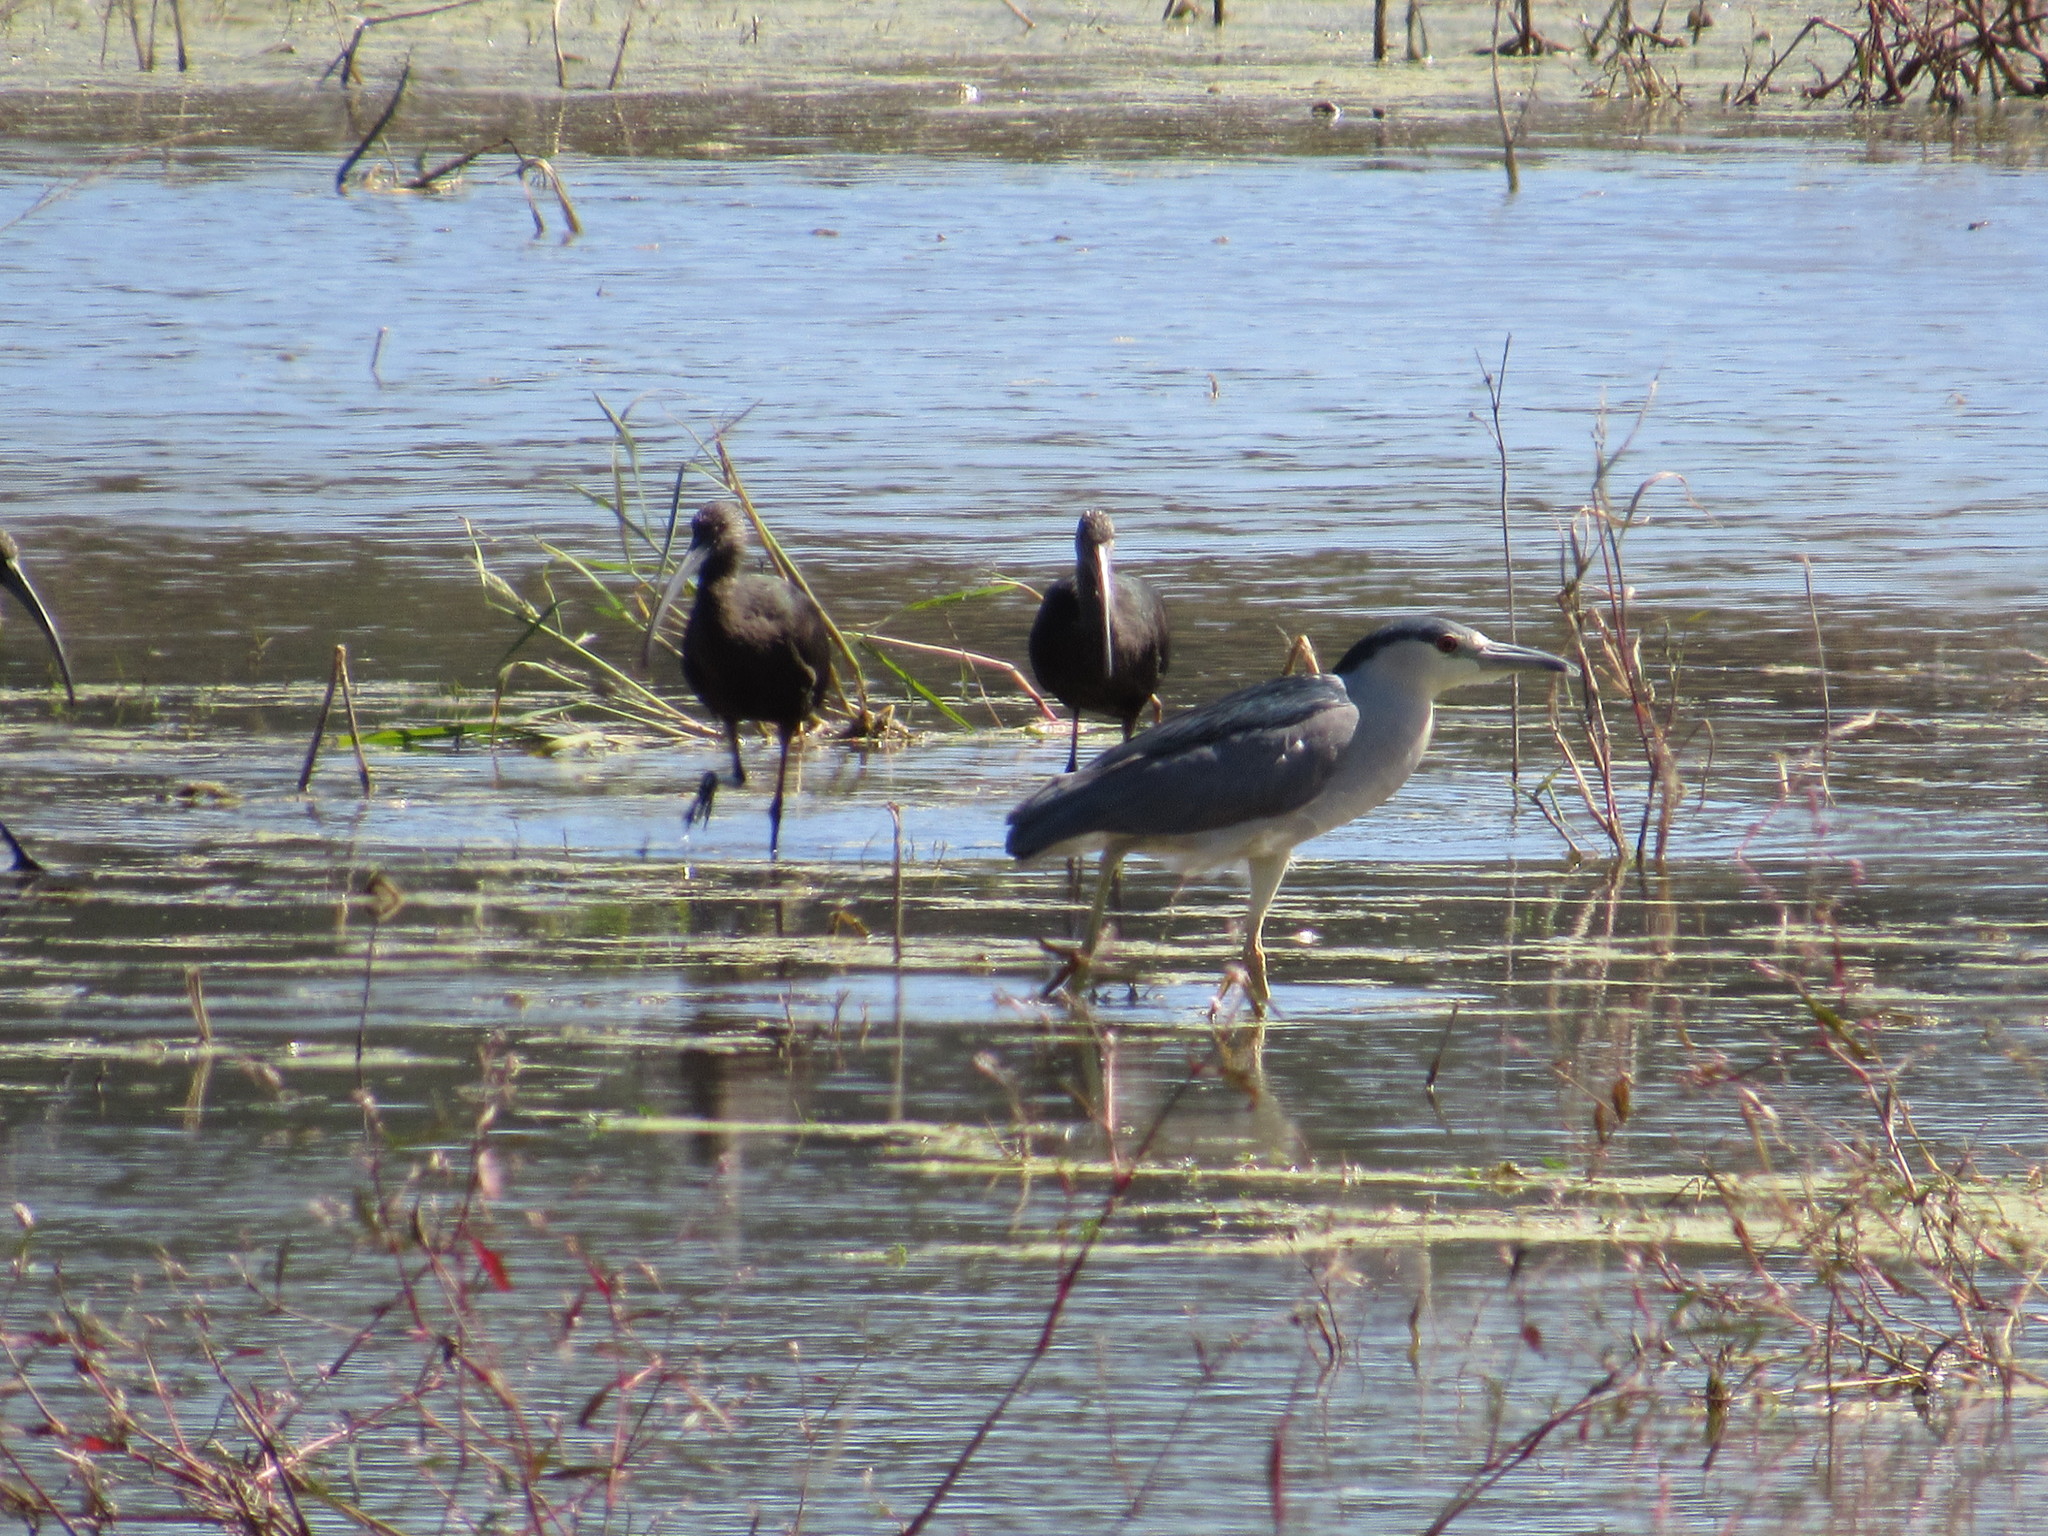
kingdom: Animalia
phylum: Chordata
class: Aves
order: Pelecaniformes
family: Ardeidae
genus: Nycticorax
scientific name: Nycticorax nycticorax
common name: Black-crowned night heron
